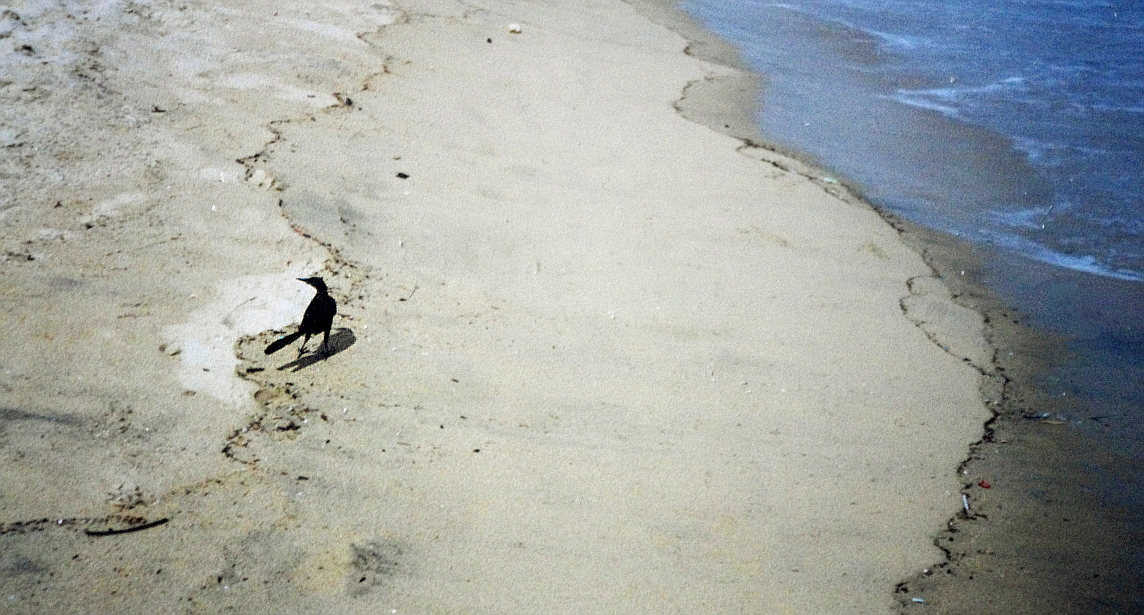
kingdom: Animalia
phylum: Chordata
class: Aves
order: Passeriformes
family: Icteridae
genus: Quiscalus
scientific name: Quiscalus mexicanus
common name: Great-tailed grackle
